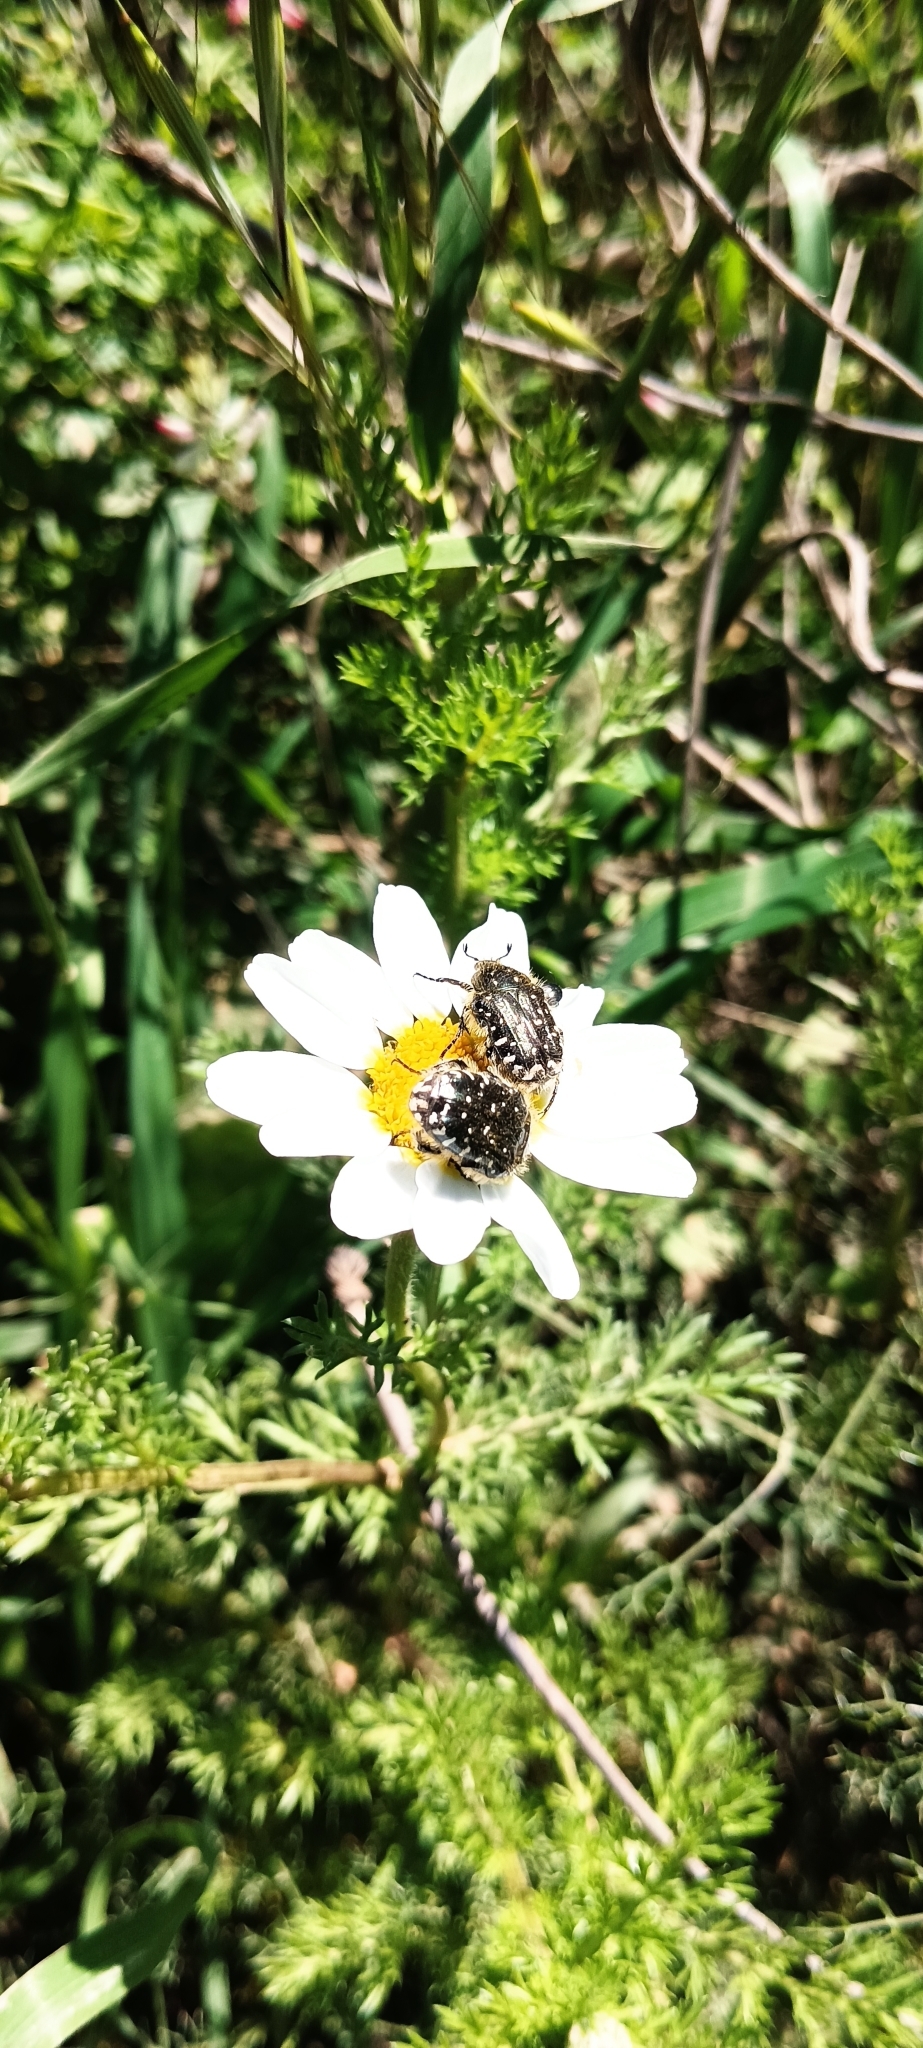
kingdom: Animalia
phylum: Arthropoda
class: Insecta
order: Coleoptera
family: Scarabaeidae
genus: Oxythyrea
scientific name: Oxythyrea funesta
